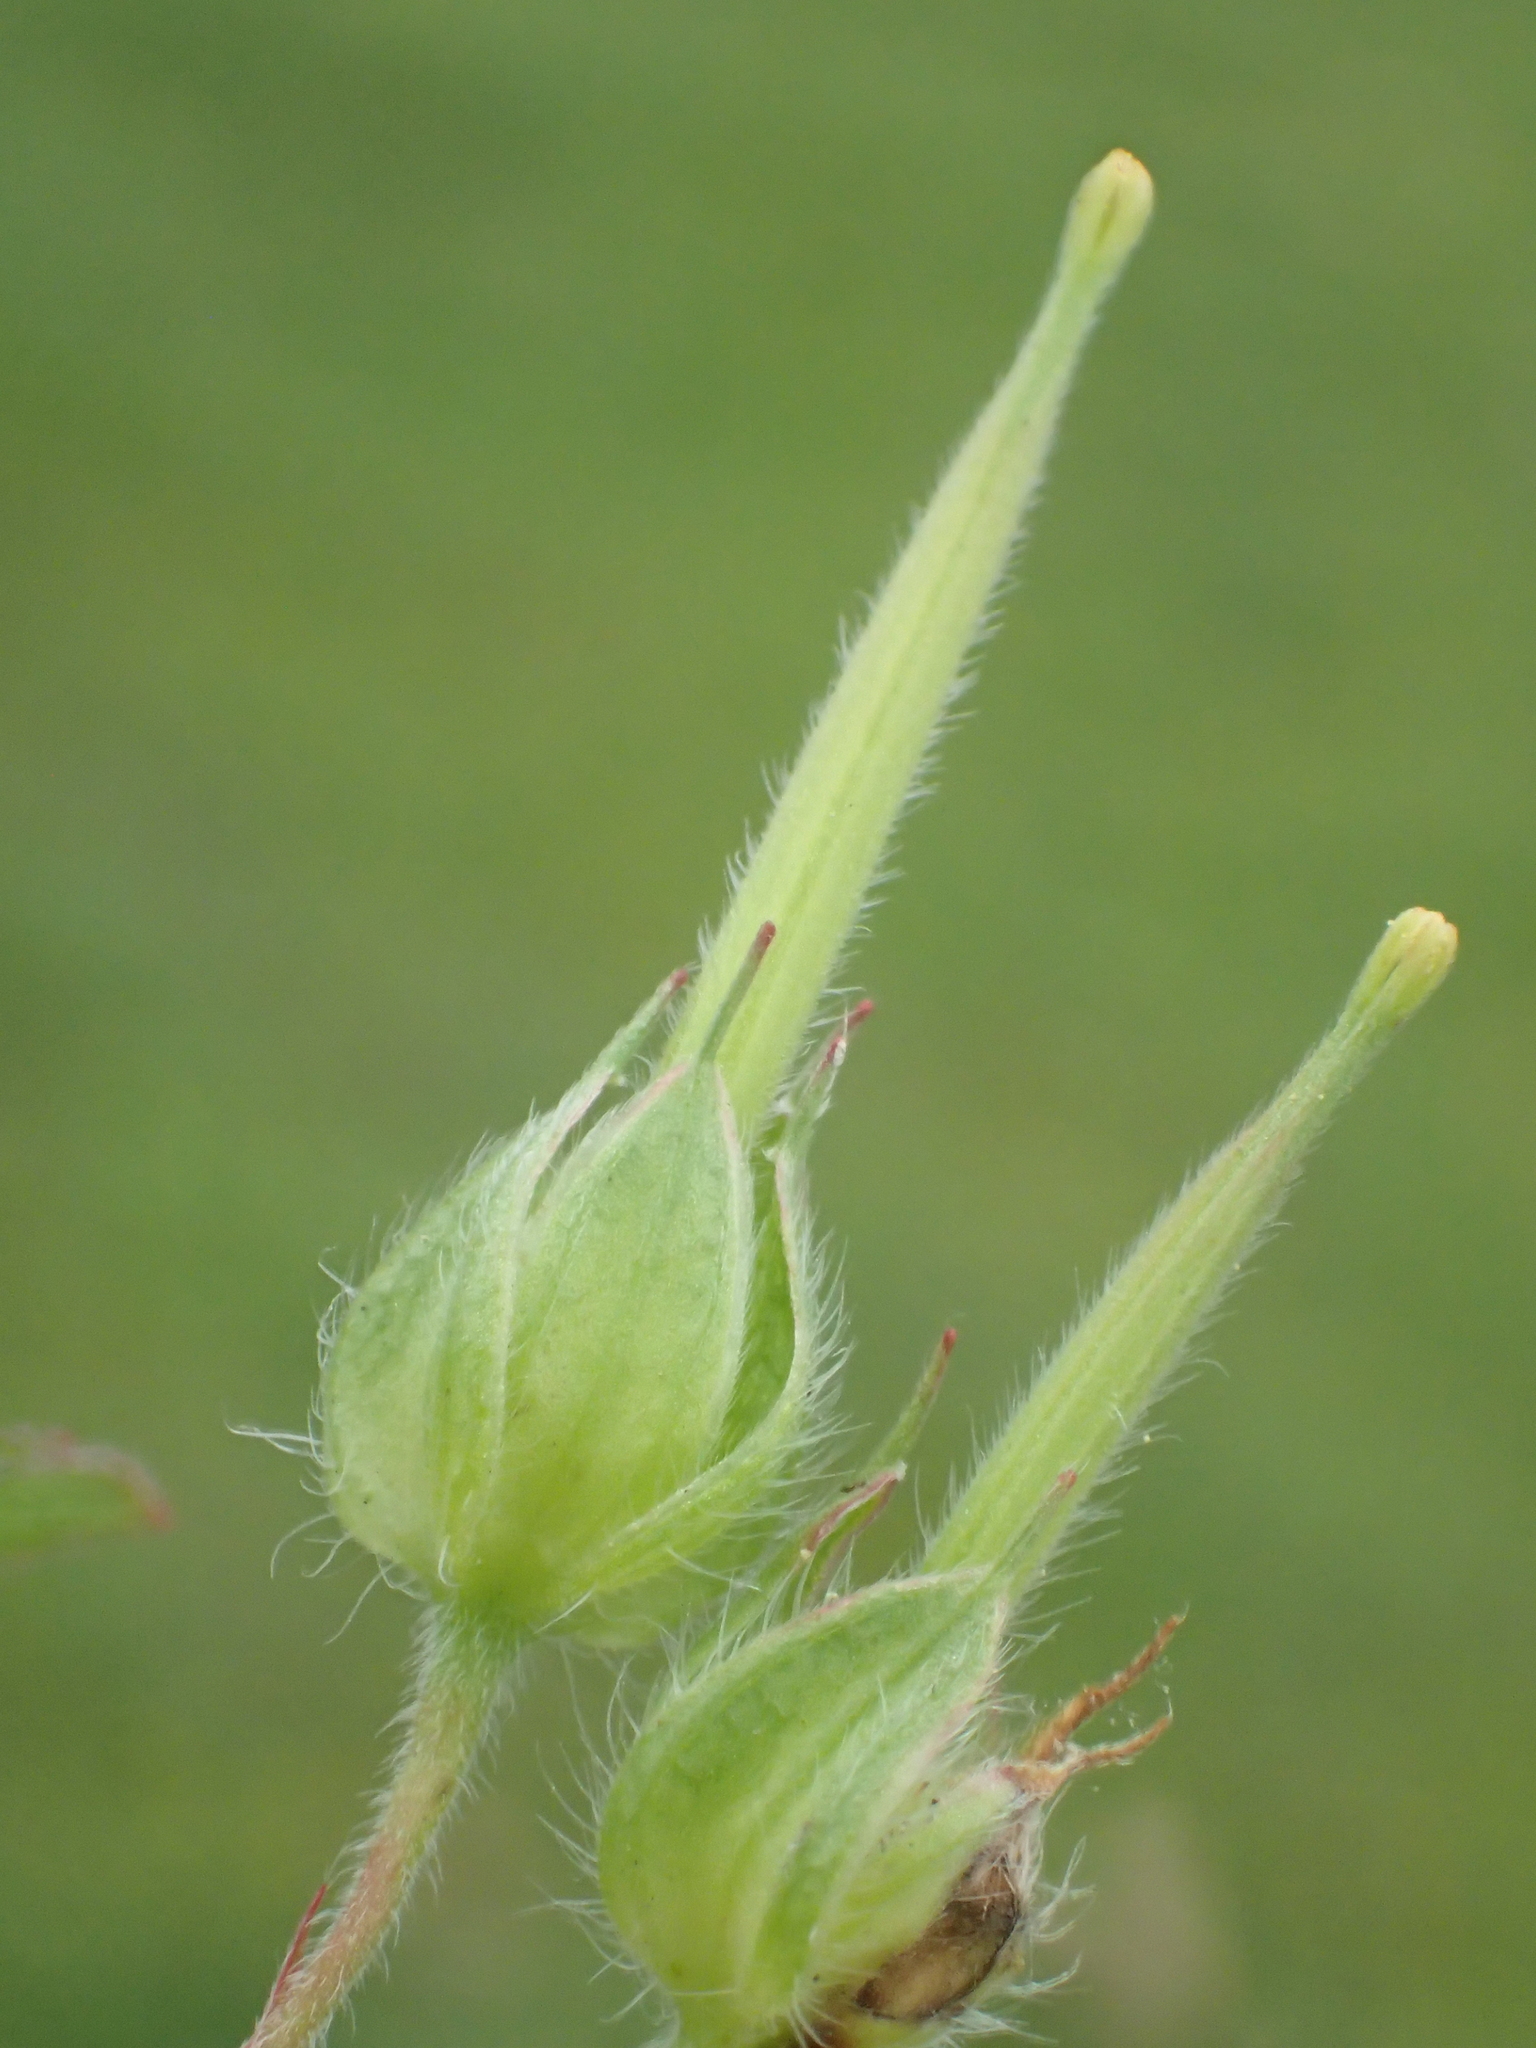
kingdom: Plantae
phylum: Tracheophyta
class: Magnoliopsida
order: Geraniales
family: Geraniaceae
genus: Geranium
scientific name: Geranium carolinianum
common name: Carolina crane's-bill
